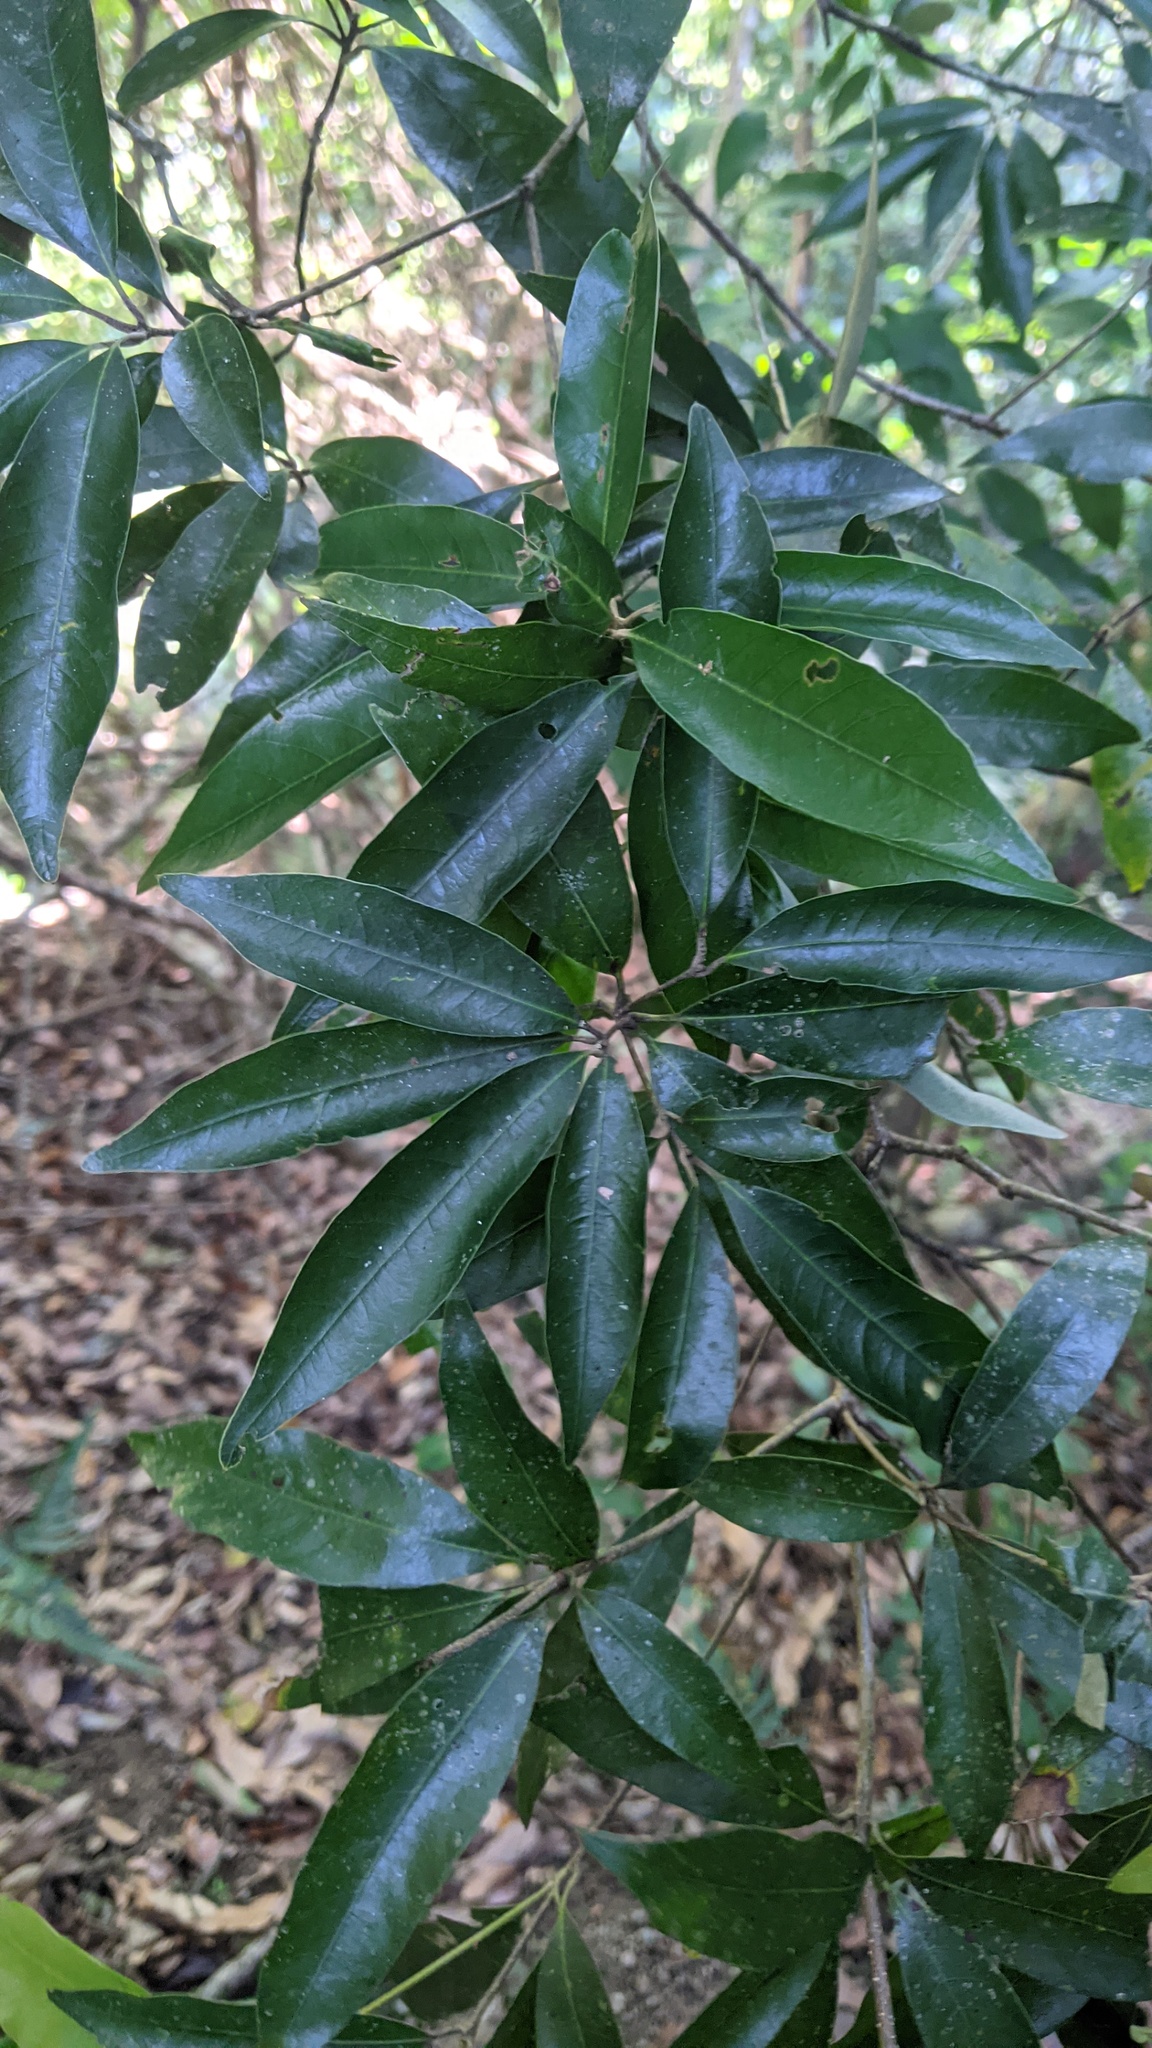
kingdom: Plantae
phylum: Tracheophyta
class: Magnoliopsida
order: Fagales
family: Fagaceae
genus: Quercus
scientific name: Quercus hypophaea
